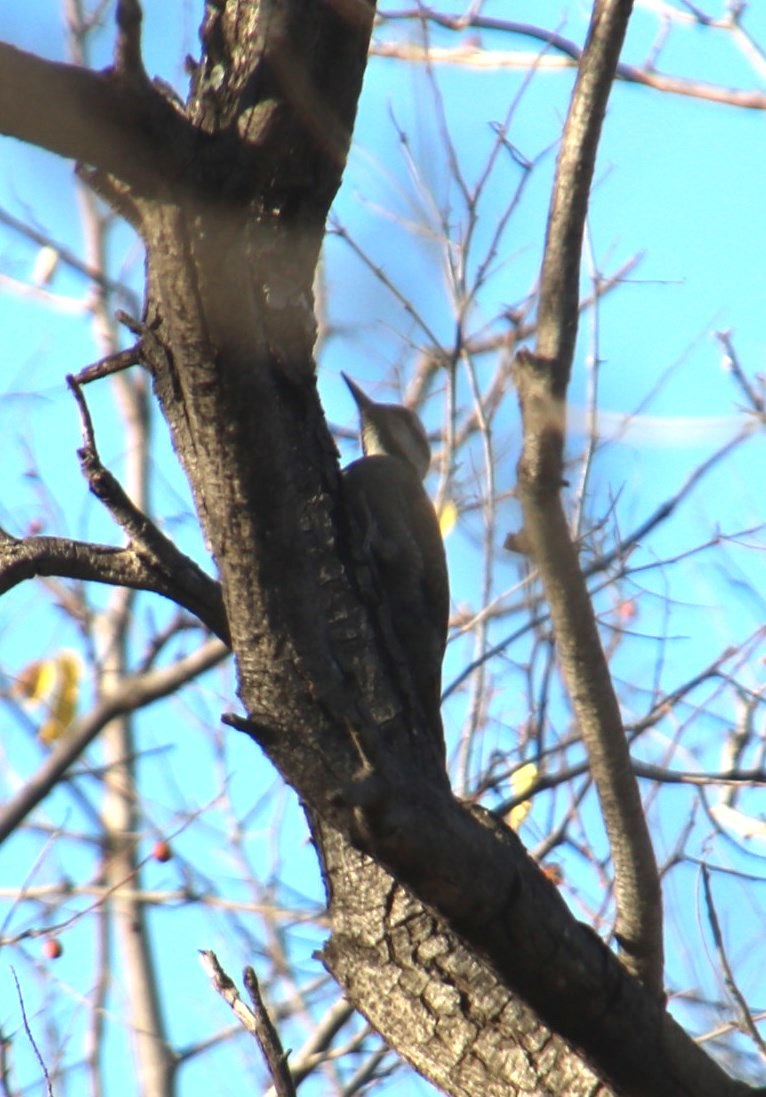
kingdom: Animalia
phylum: Chordata
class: Aves
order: Piciformes
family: Picidae
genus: Chloropicus
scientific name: Chloropicus namaquus
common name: Bearded woodpecker
